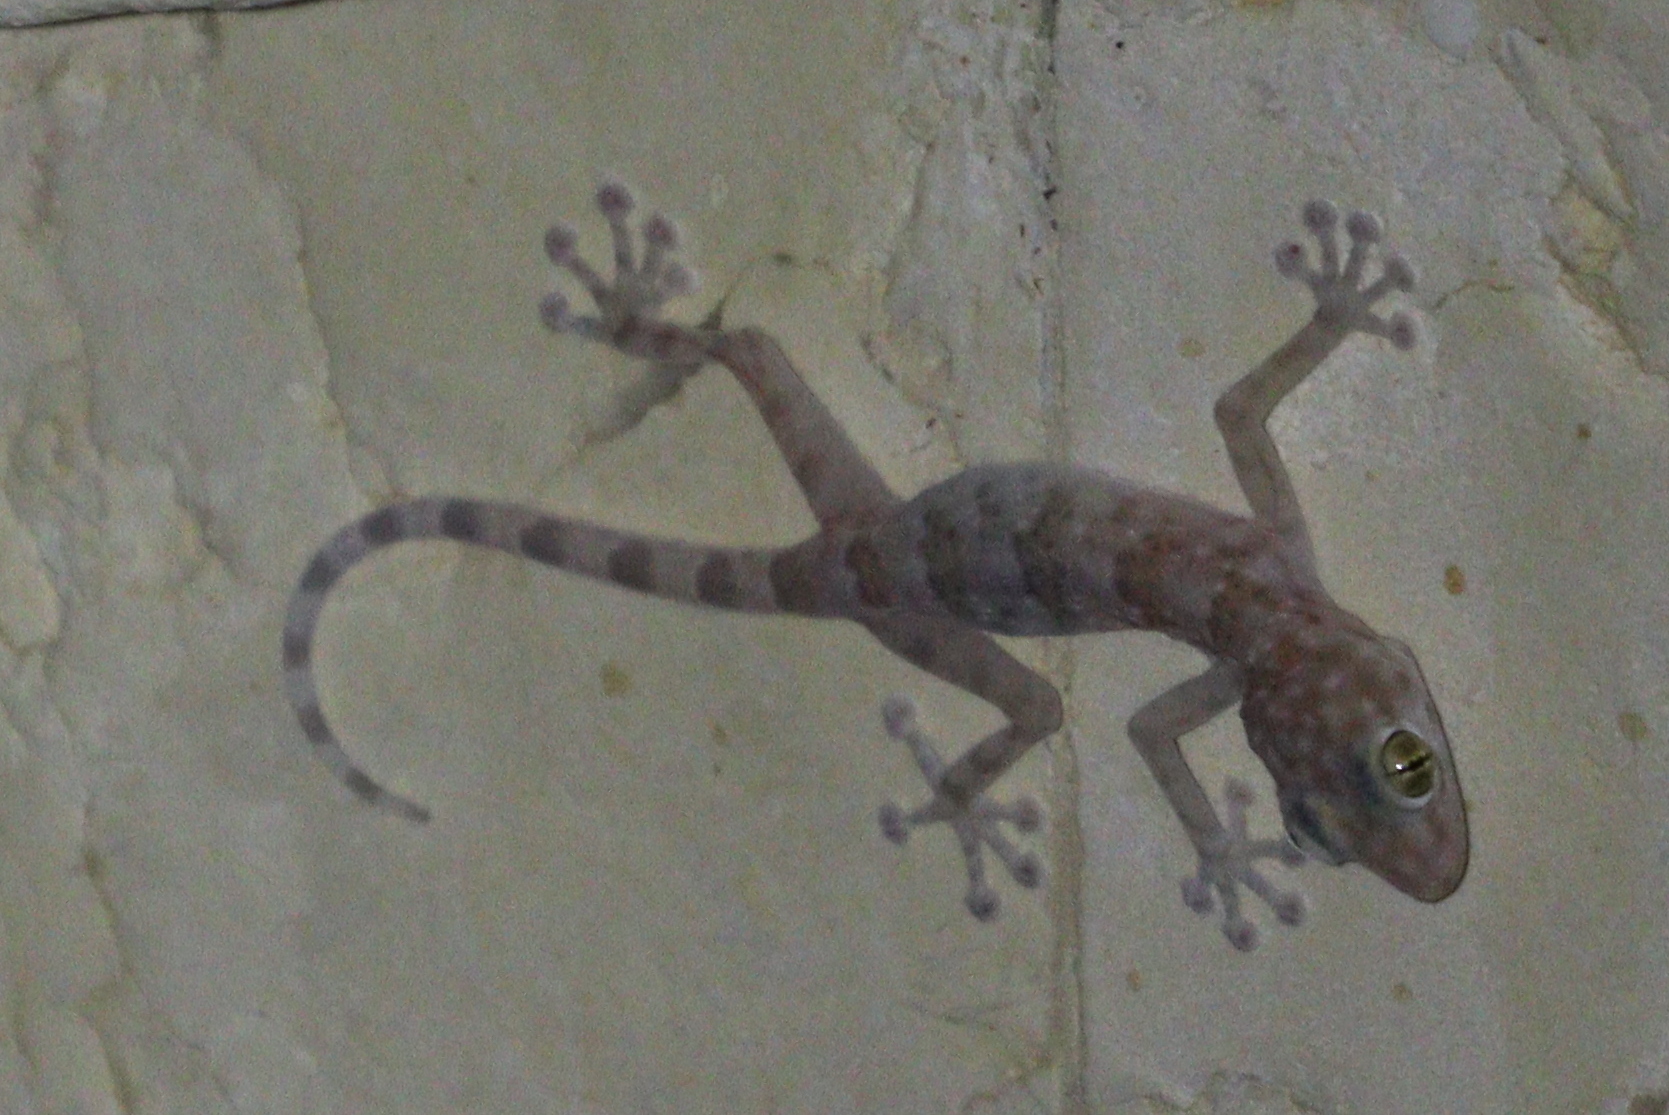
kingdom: Animalia
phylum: Chordata
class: Squamata
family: Phyllodactylidae
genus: Ptyodactylus
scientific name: Ptyodactylus hasselquistii
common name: Hasselquist’s fan-footed gecko
